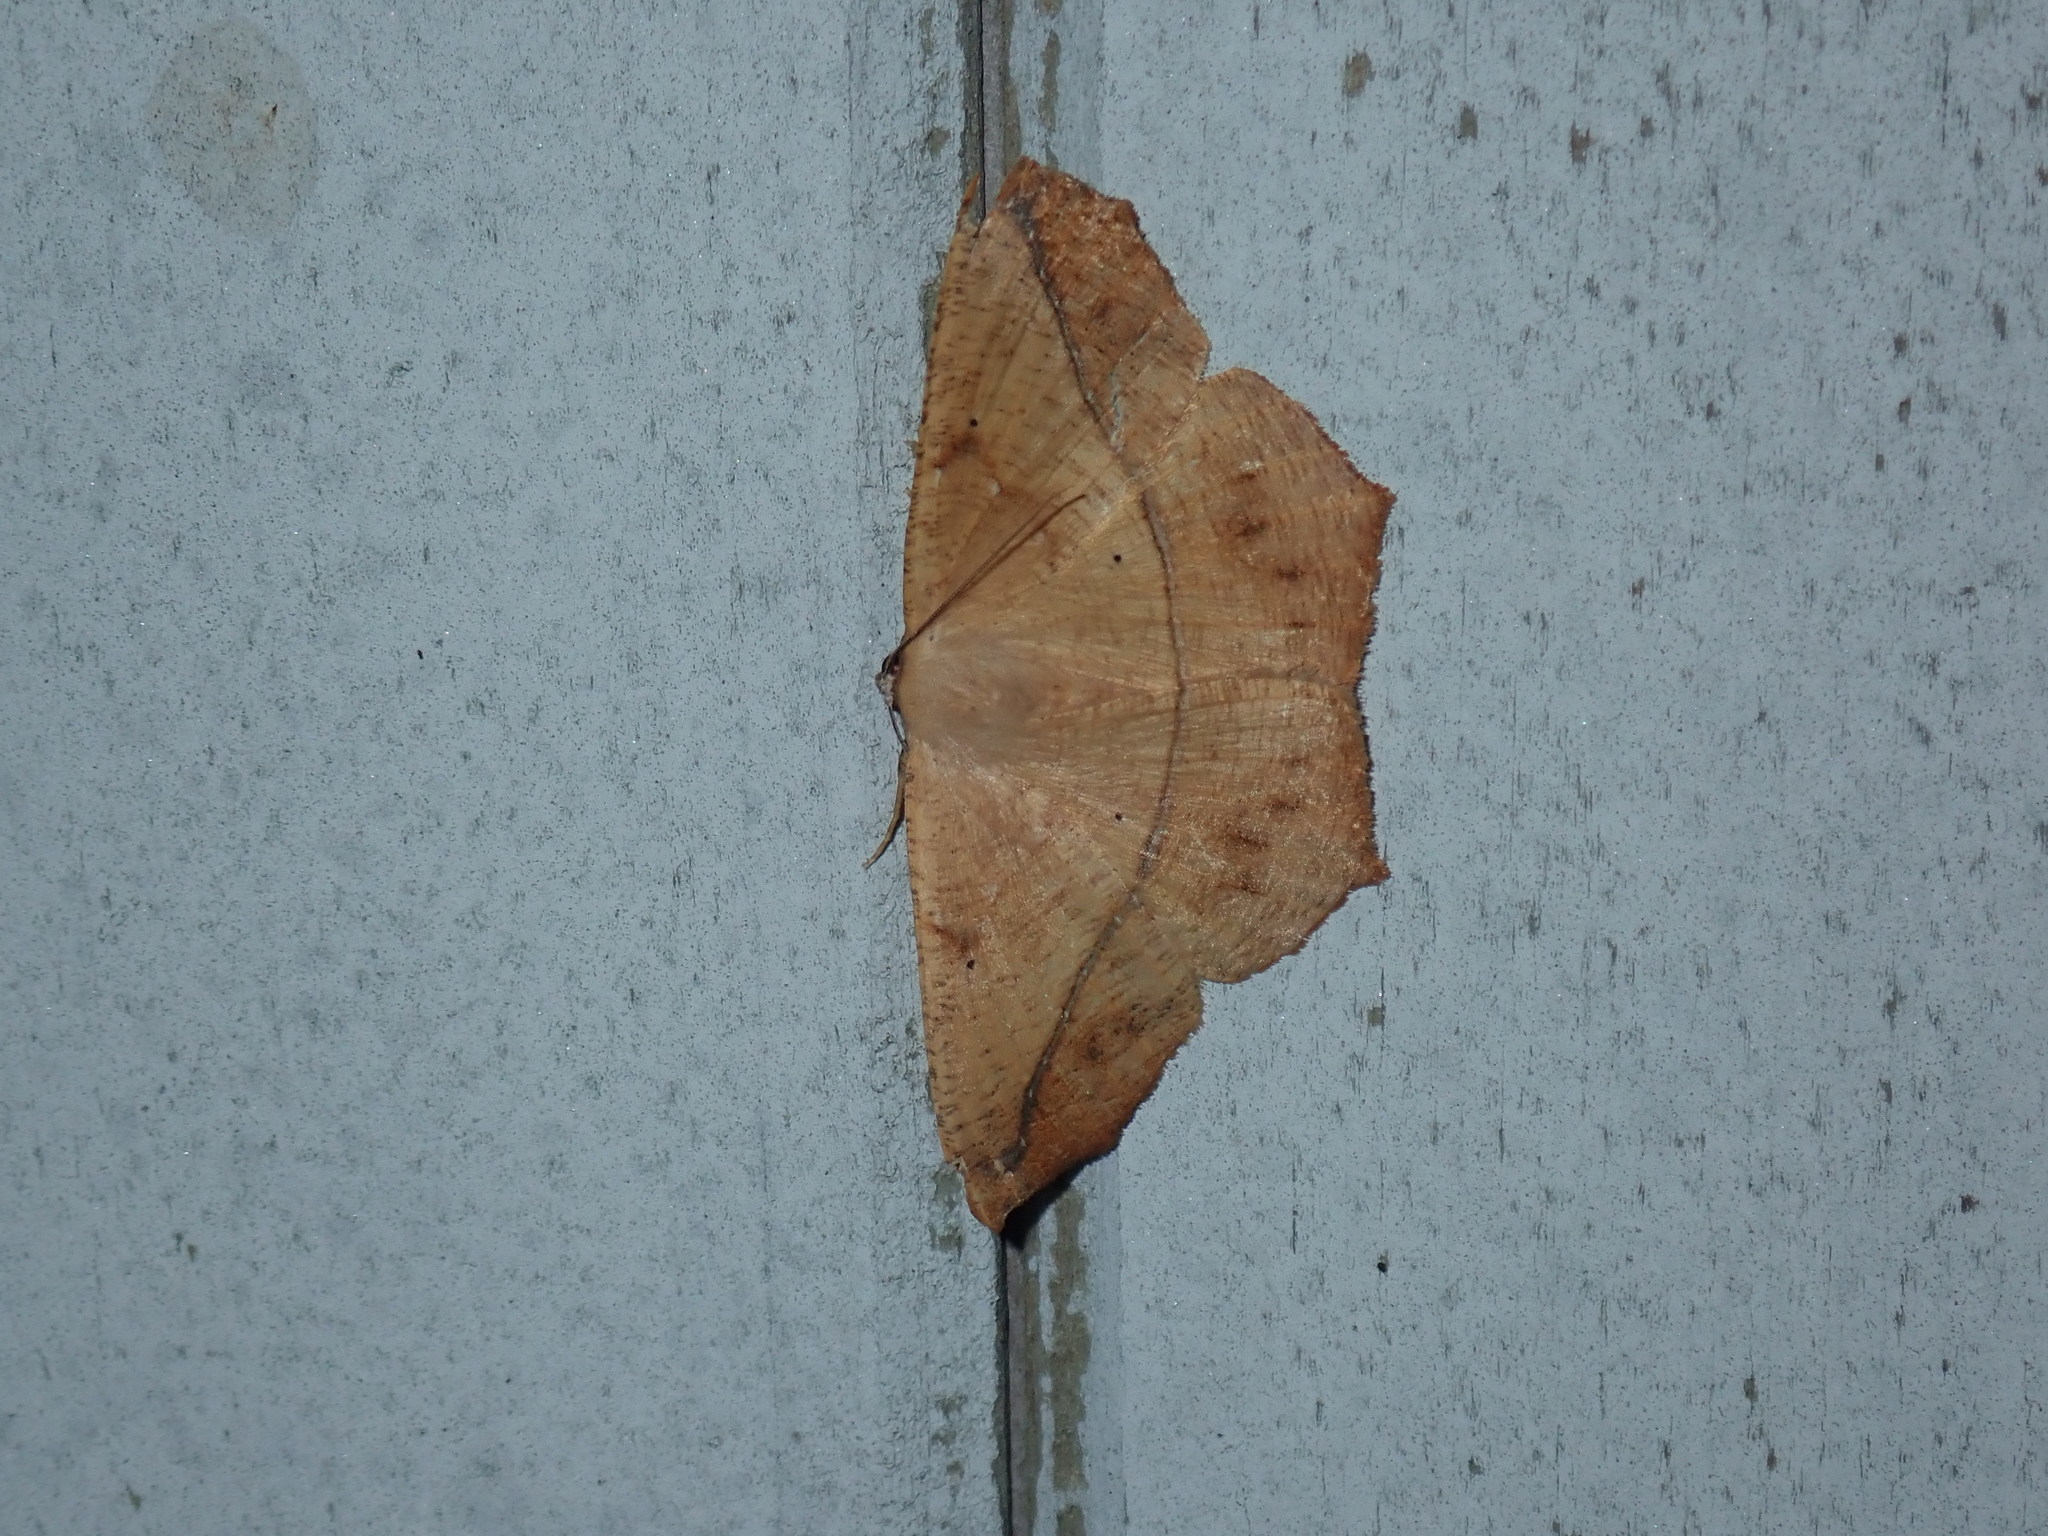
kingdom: Animalia
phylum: Arthropoda
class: Insecta
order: Lepidoptera
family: Geometridae
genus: Prochoerodes
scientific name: Prochoerodes lineola
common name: Large maple spanworm
